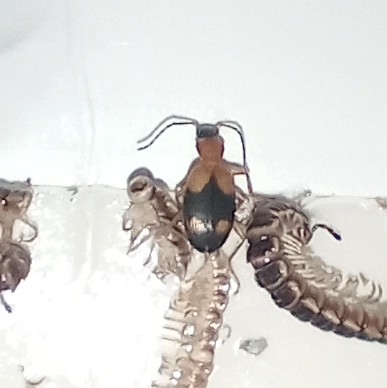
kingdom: Animalia
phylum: Arthropoda
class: Insecta
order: Coleoptera
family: Carabidae
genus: Agonum
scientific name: Agonum quadrimaculatum
